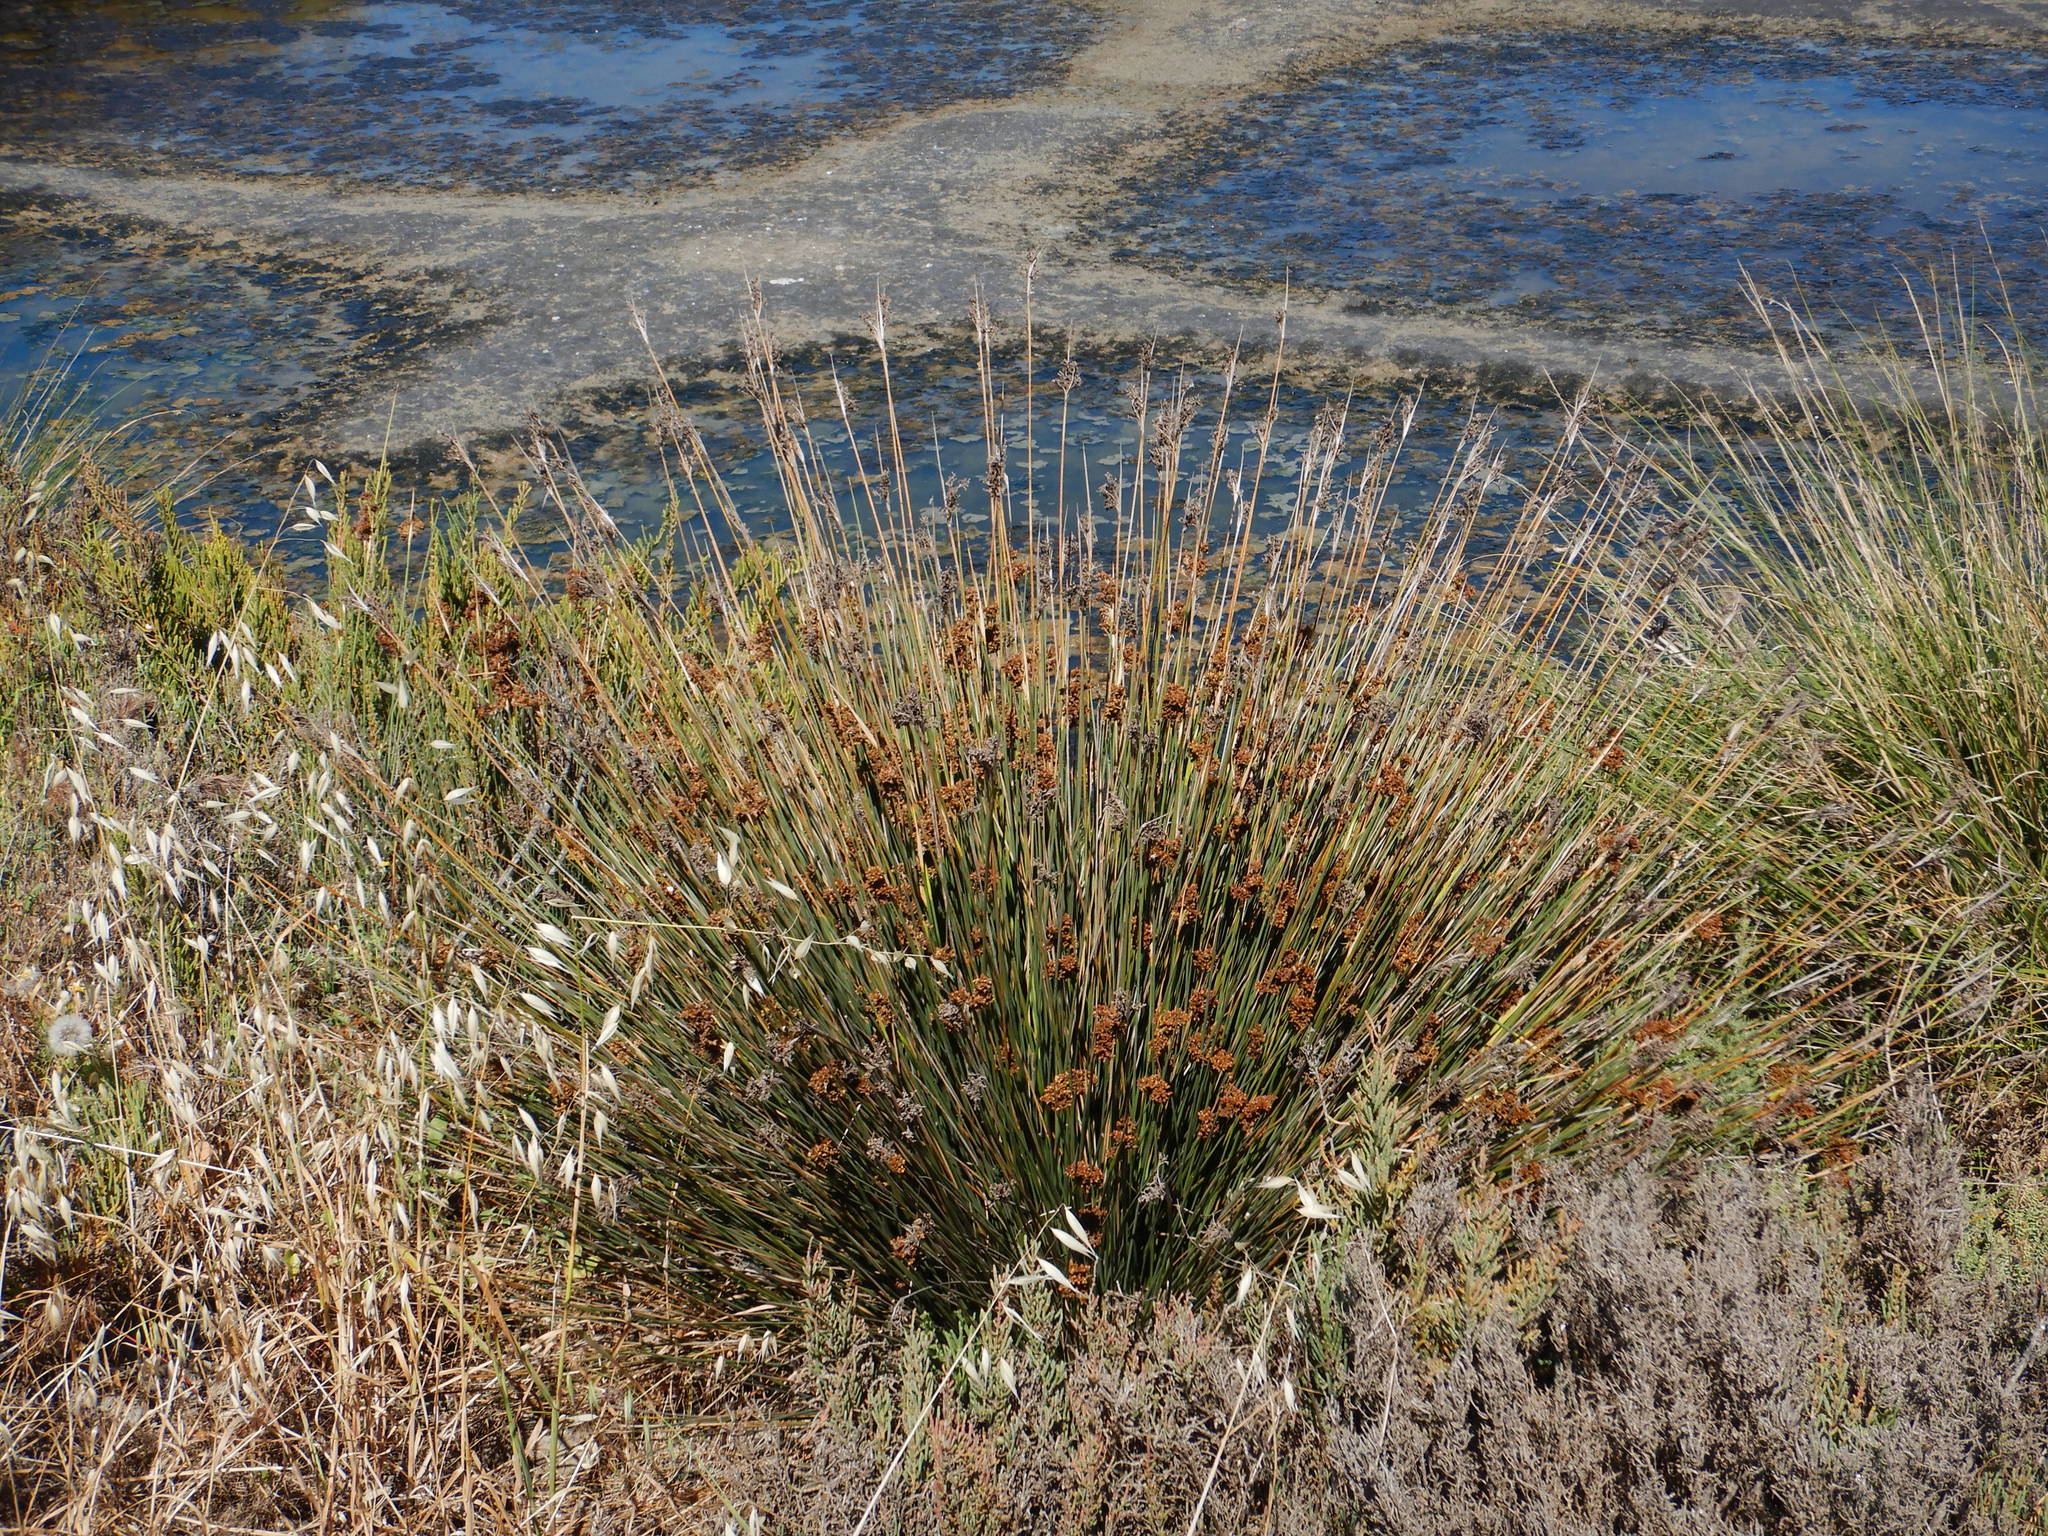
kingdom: Plantae
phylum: Tracheophyta
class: Liliopsida
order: Poales
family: Juncaceae
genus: Juncus
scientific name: Juncus acutus
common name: Sharp rush
